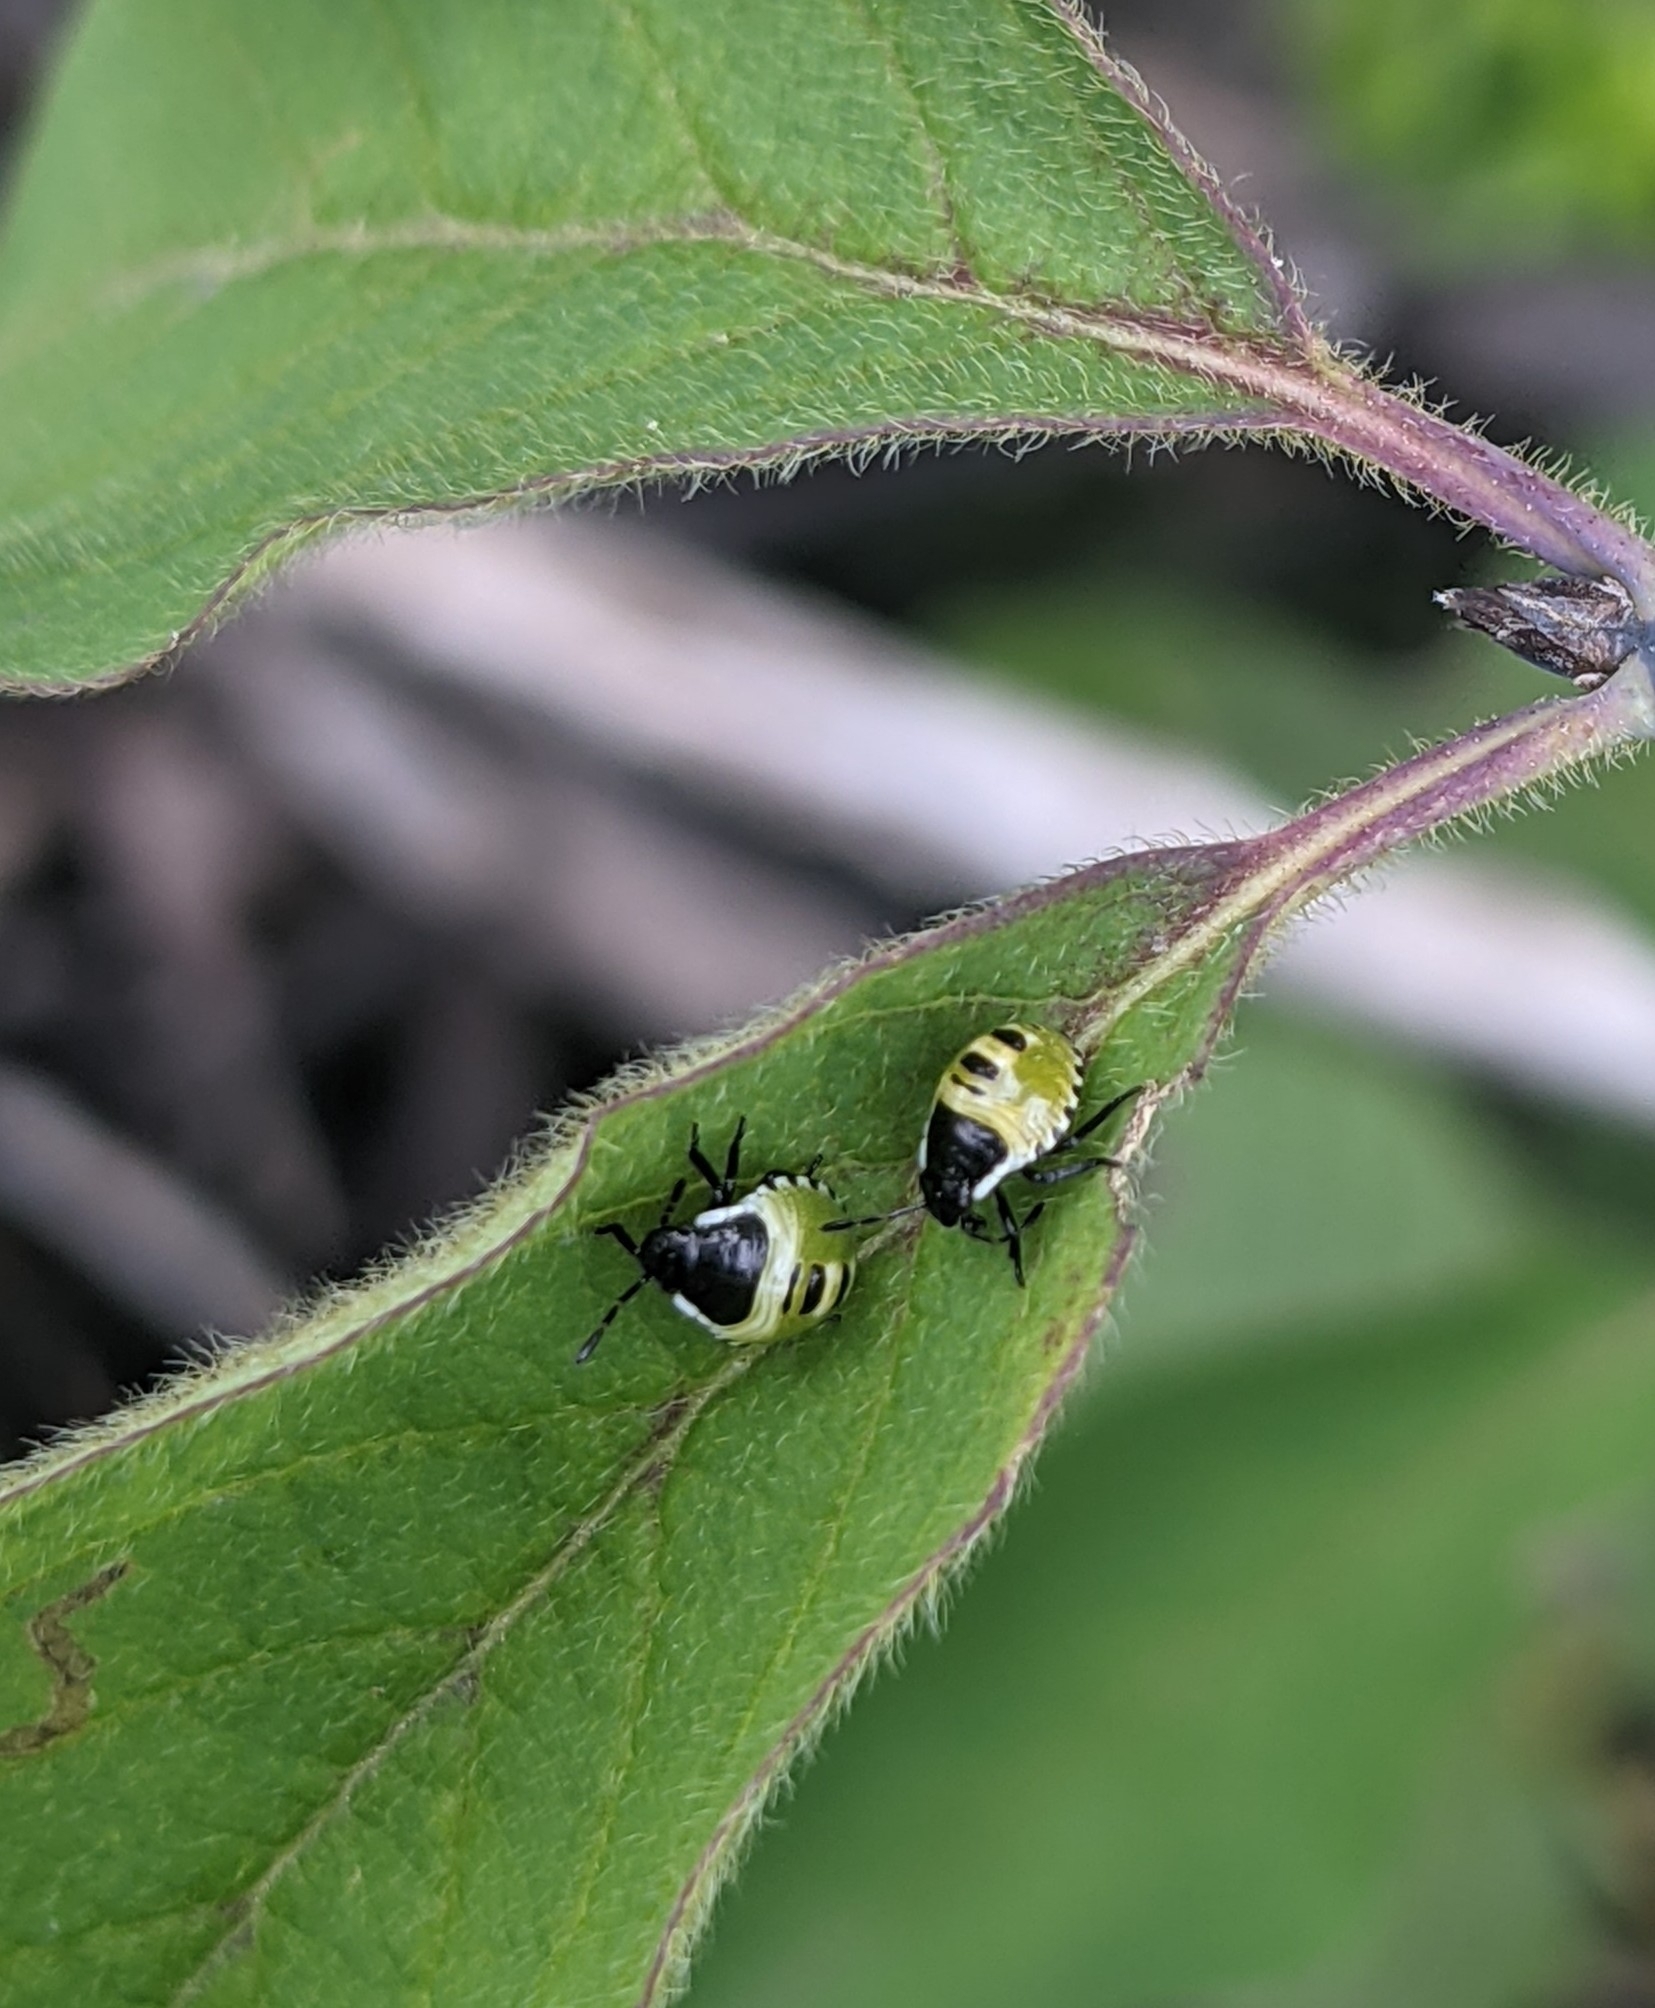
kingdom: Animalia
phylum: Arthropoda
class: Insecta
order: Hemiptera
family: Pentatomidae
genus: Palomena
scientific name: Palomena prasina
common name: Green shieldbug
